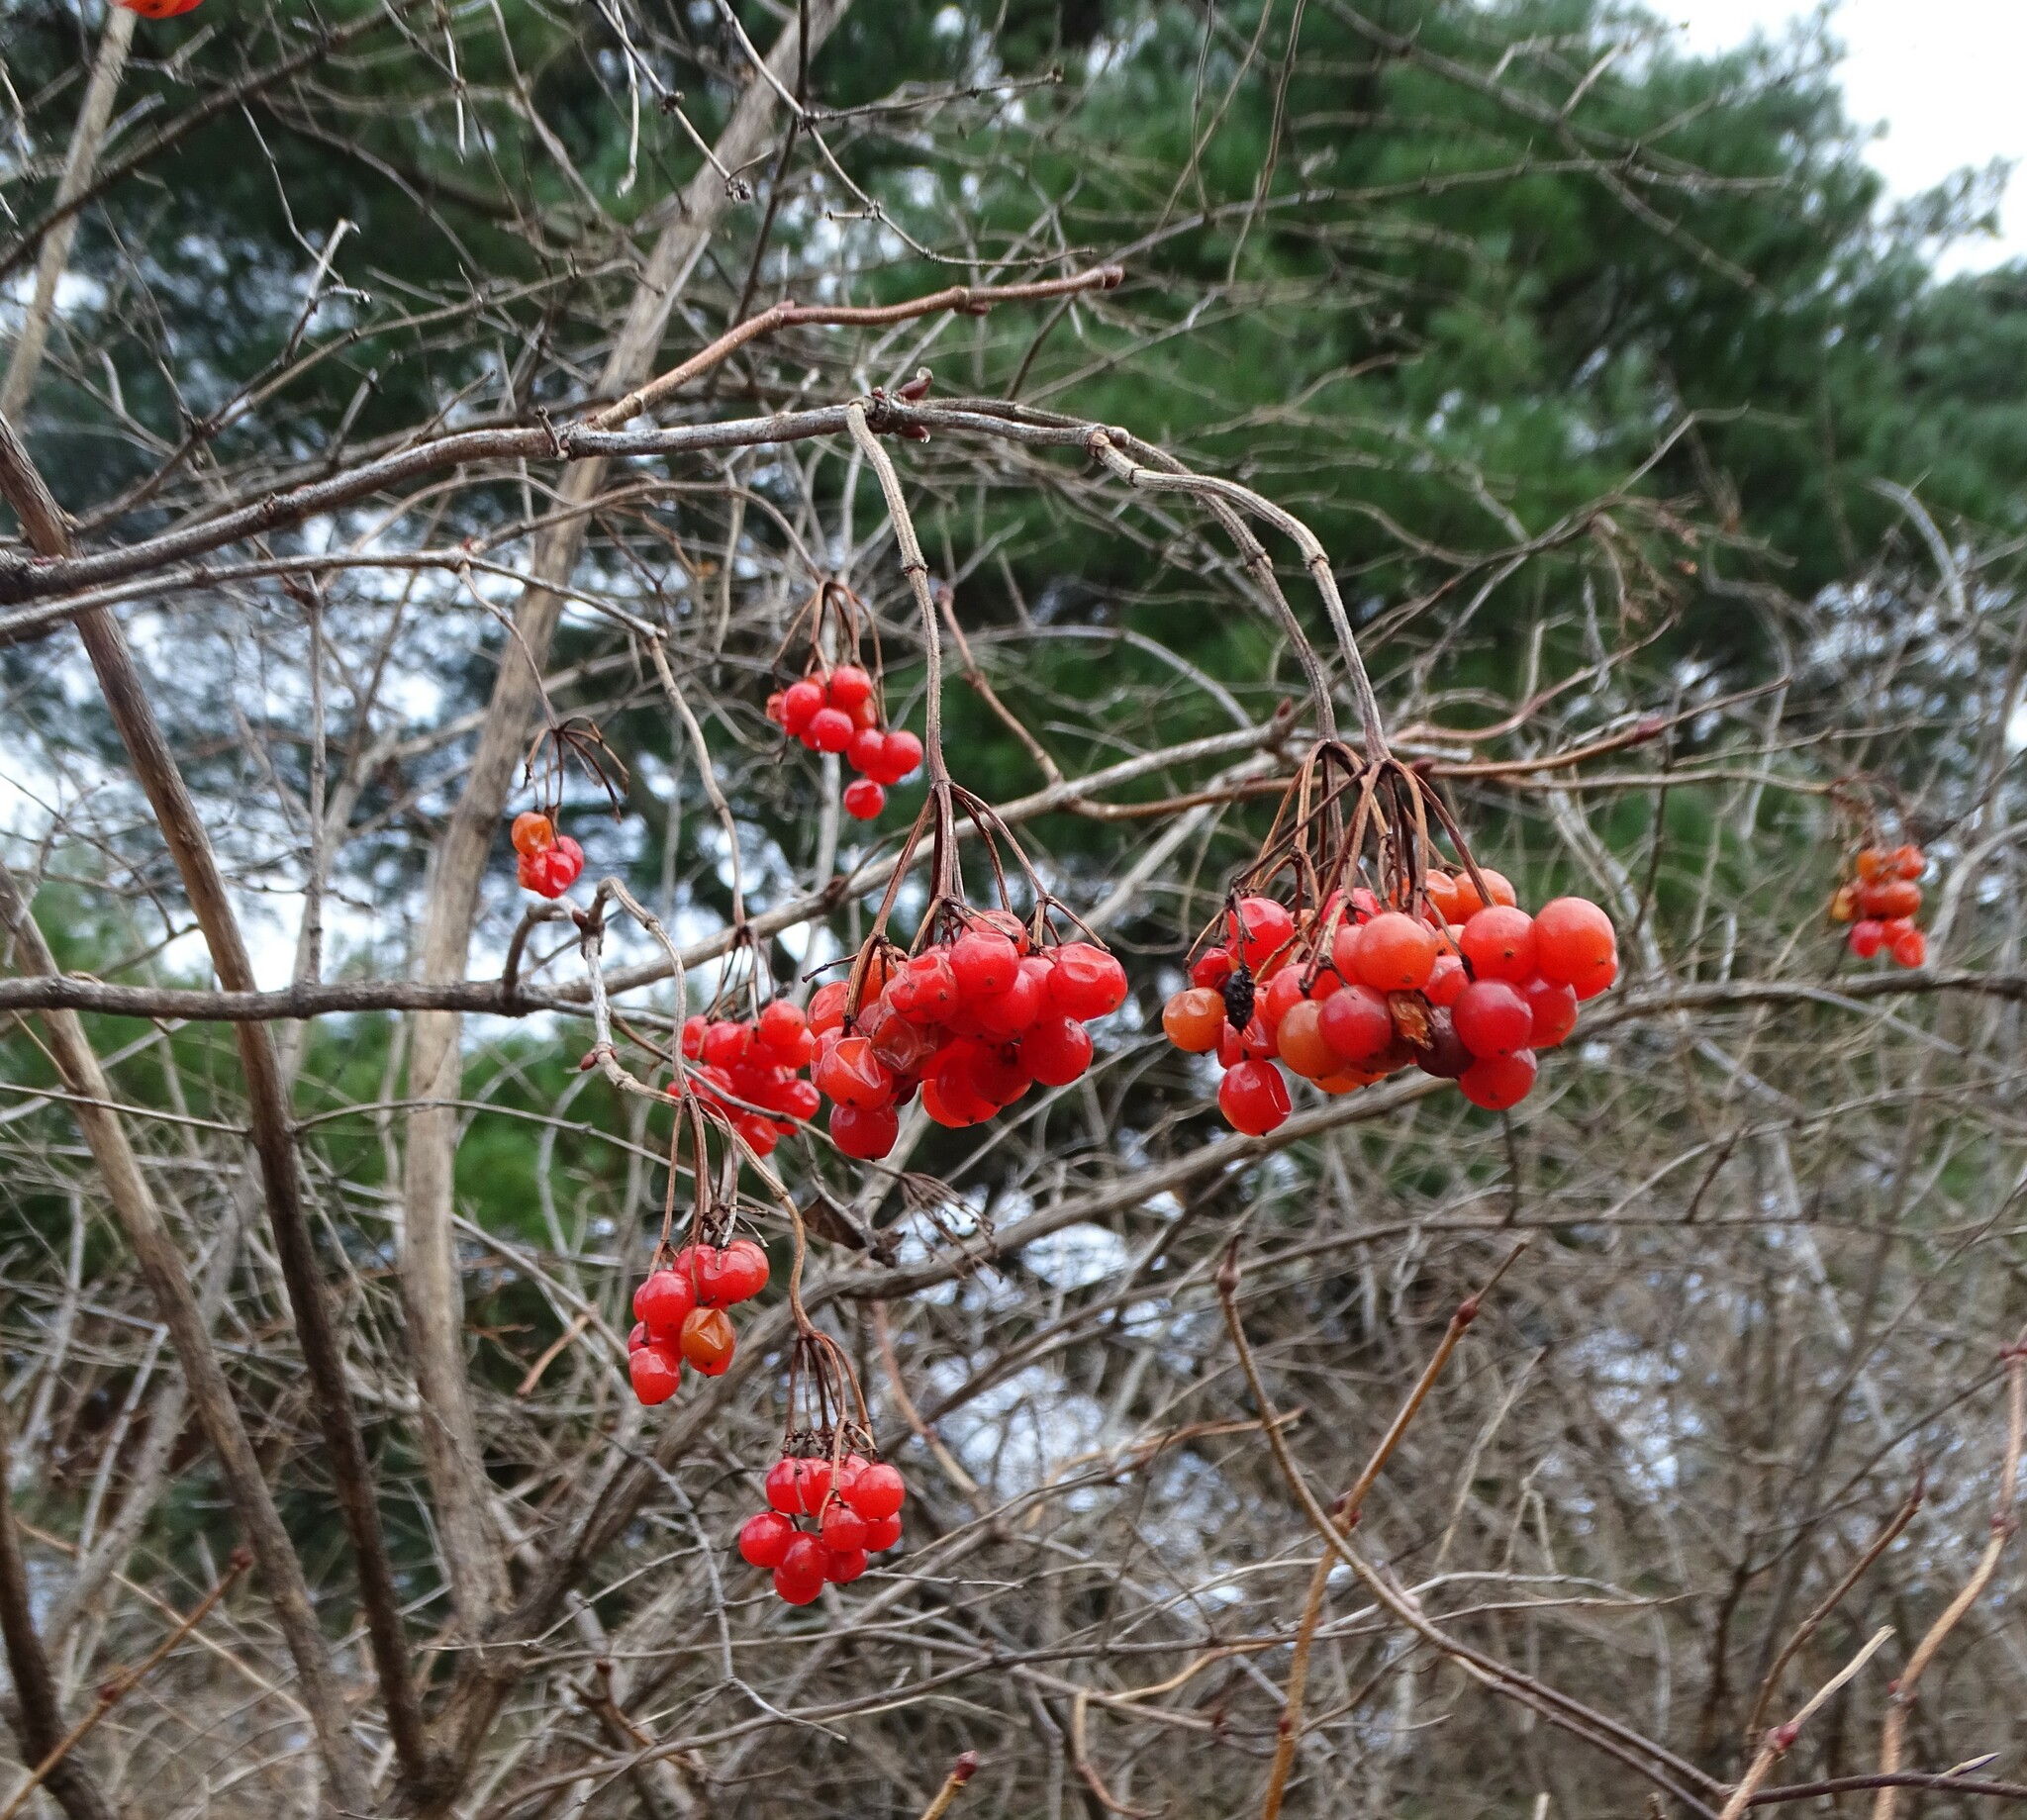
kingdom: Plantae
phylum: Tracheophyta
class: Magnoliopsida
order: Dipsacales
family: Viburnaceae
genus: Viburnum
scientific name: Viburnum opulus
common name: Guelder-rose
